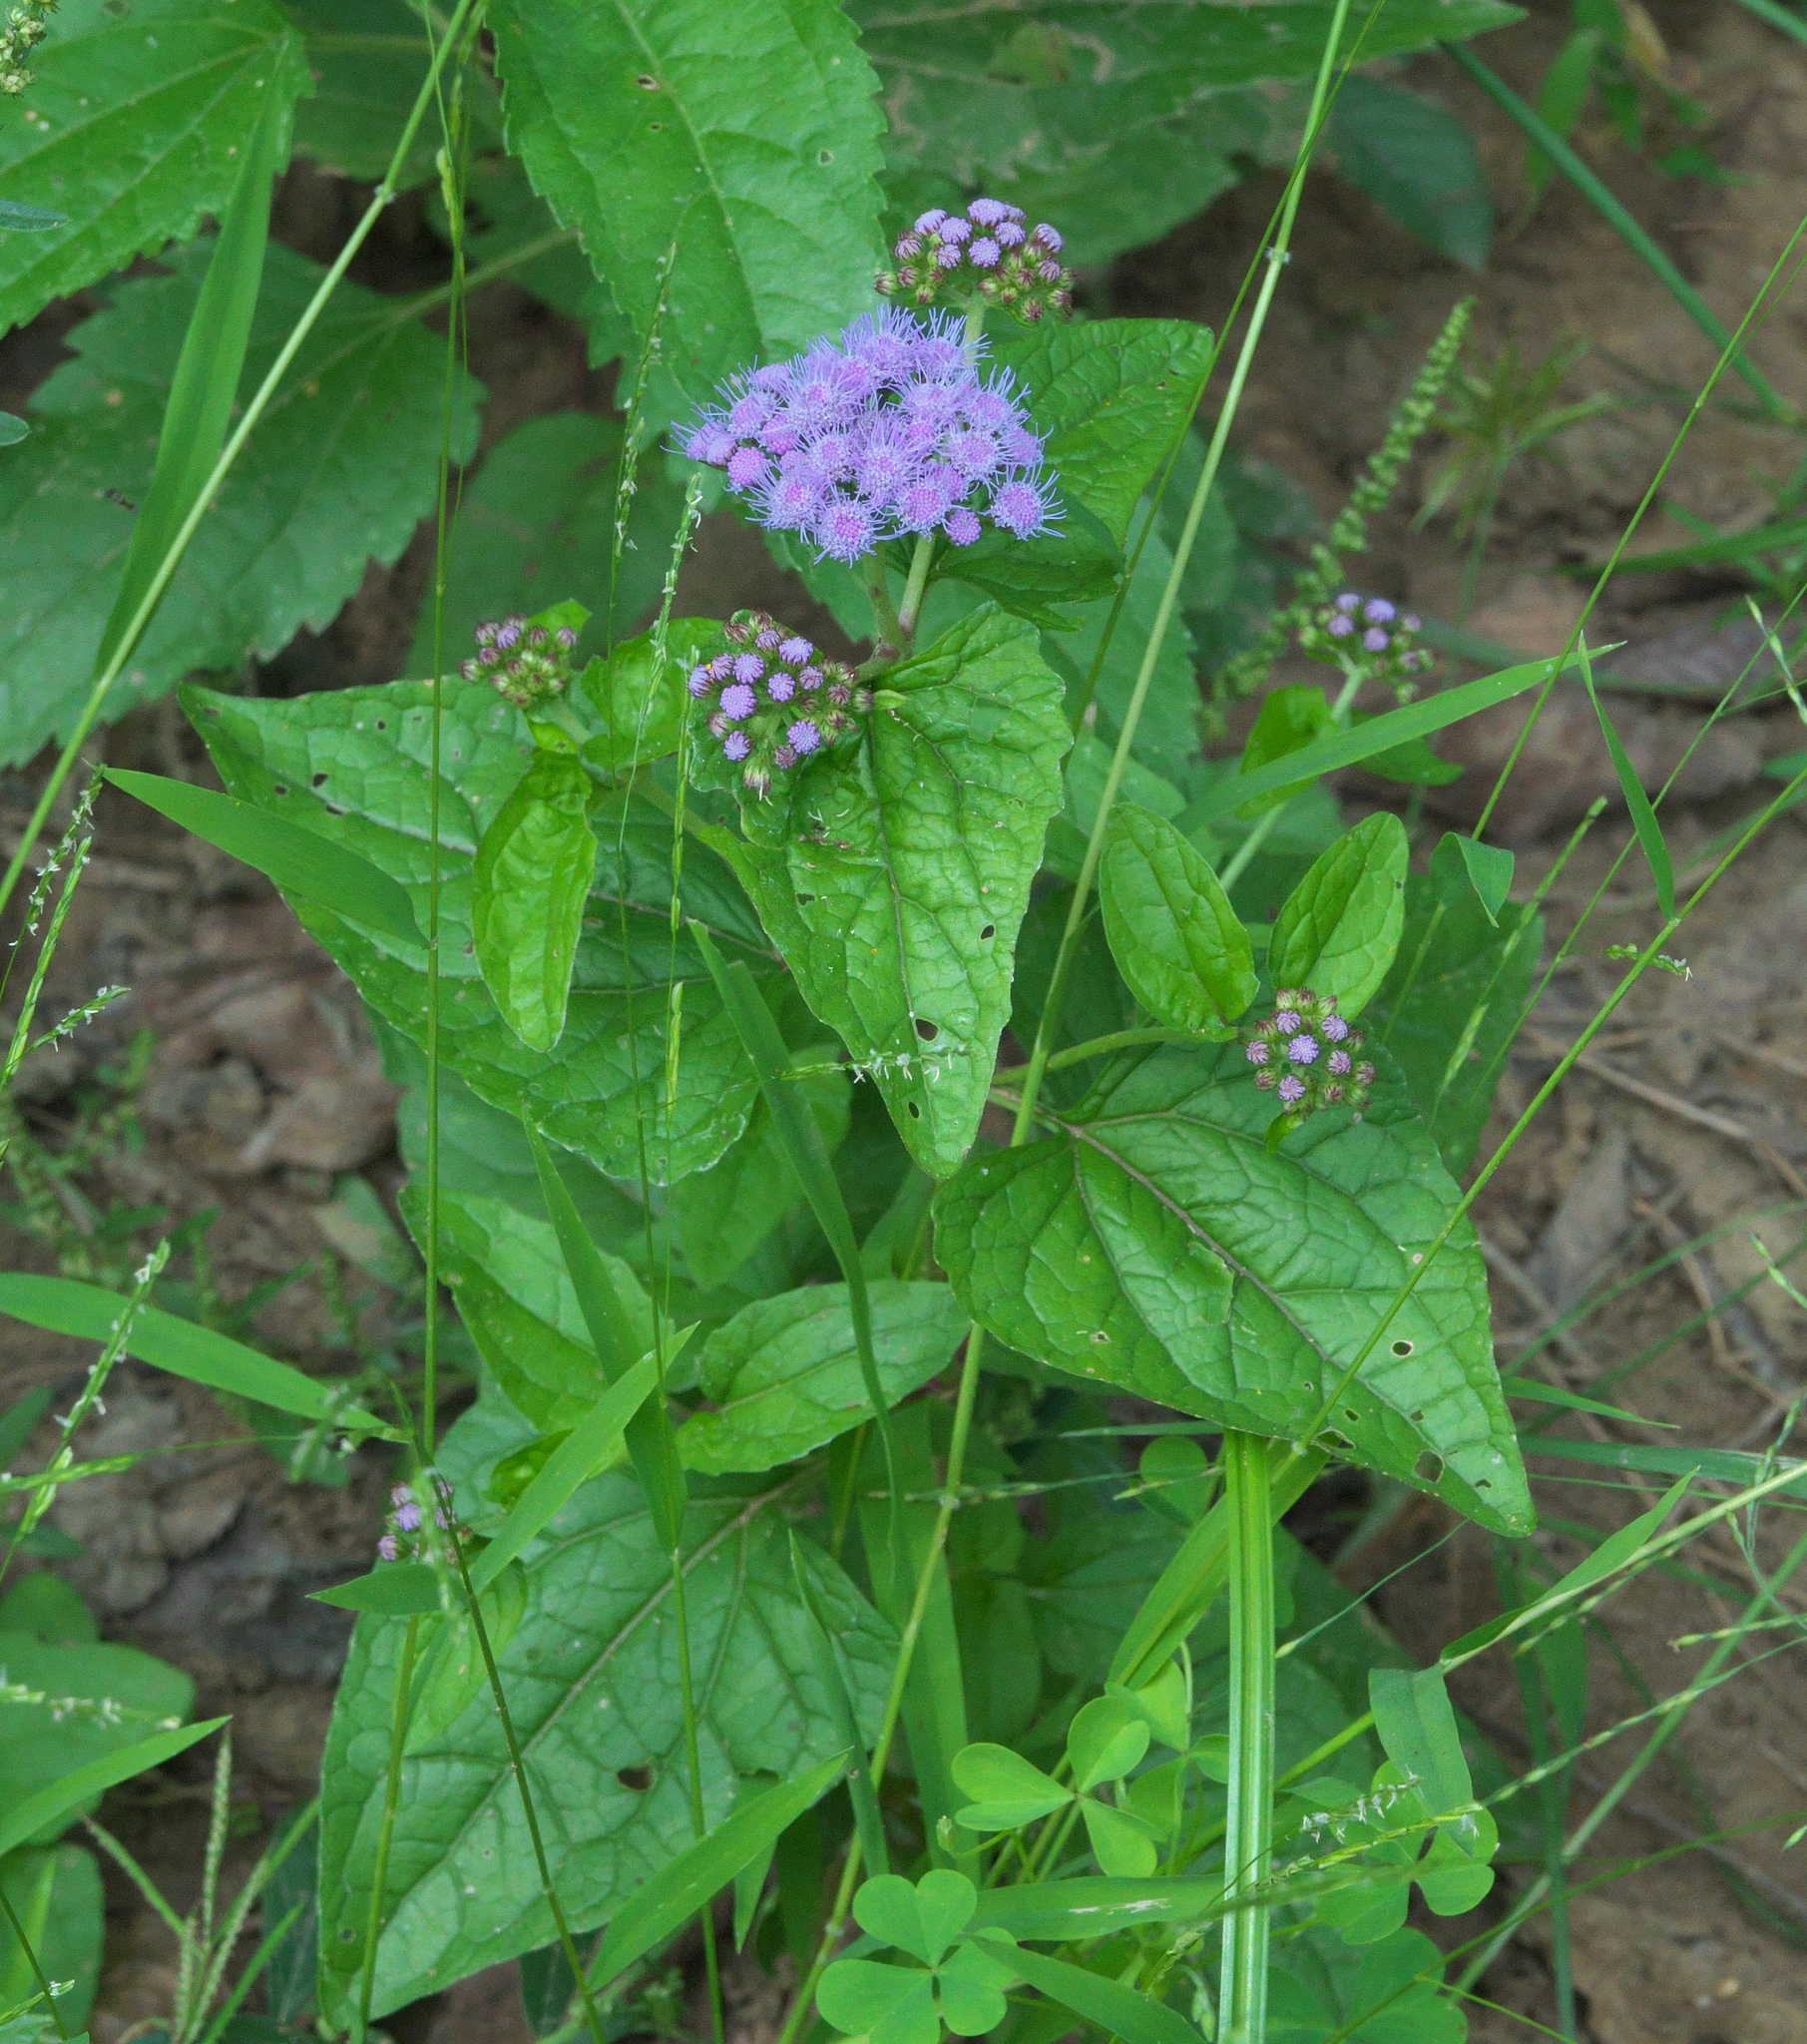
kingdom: Plantae
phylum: Tracheophyta
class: Magnoliopsida
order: Asterales
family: Asteraceae
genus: Conoclinium
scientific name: Conoclinium coelestinum
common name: Blue mistflower
